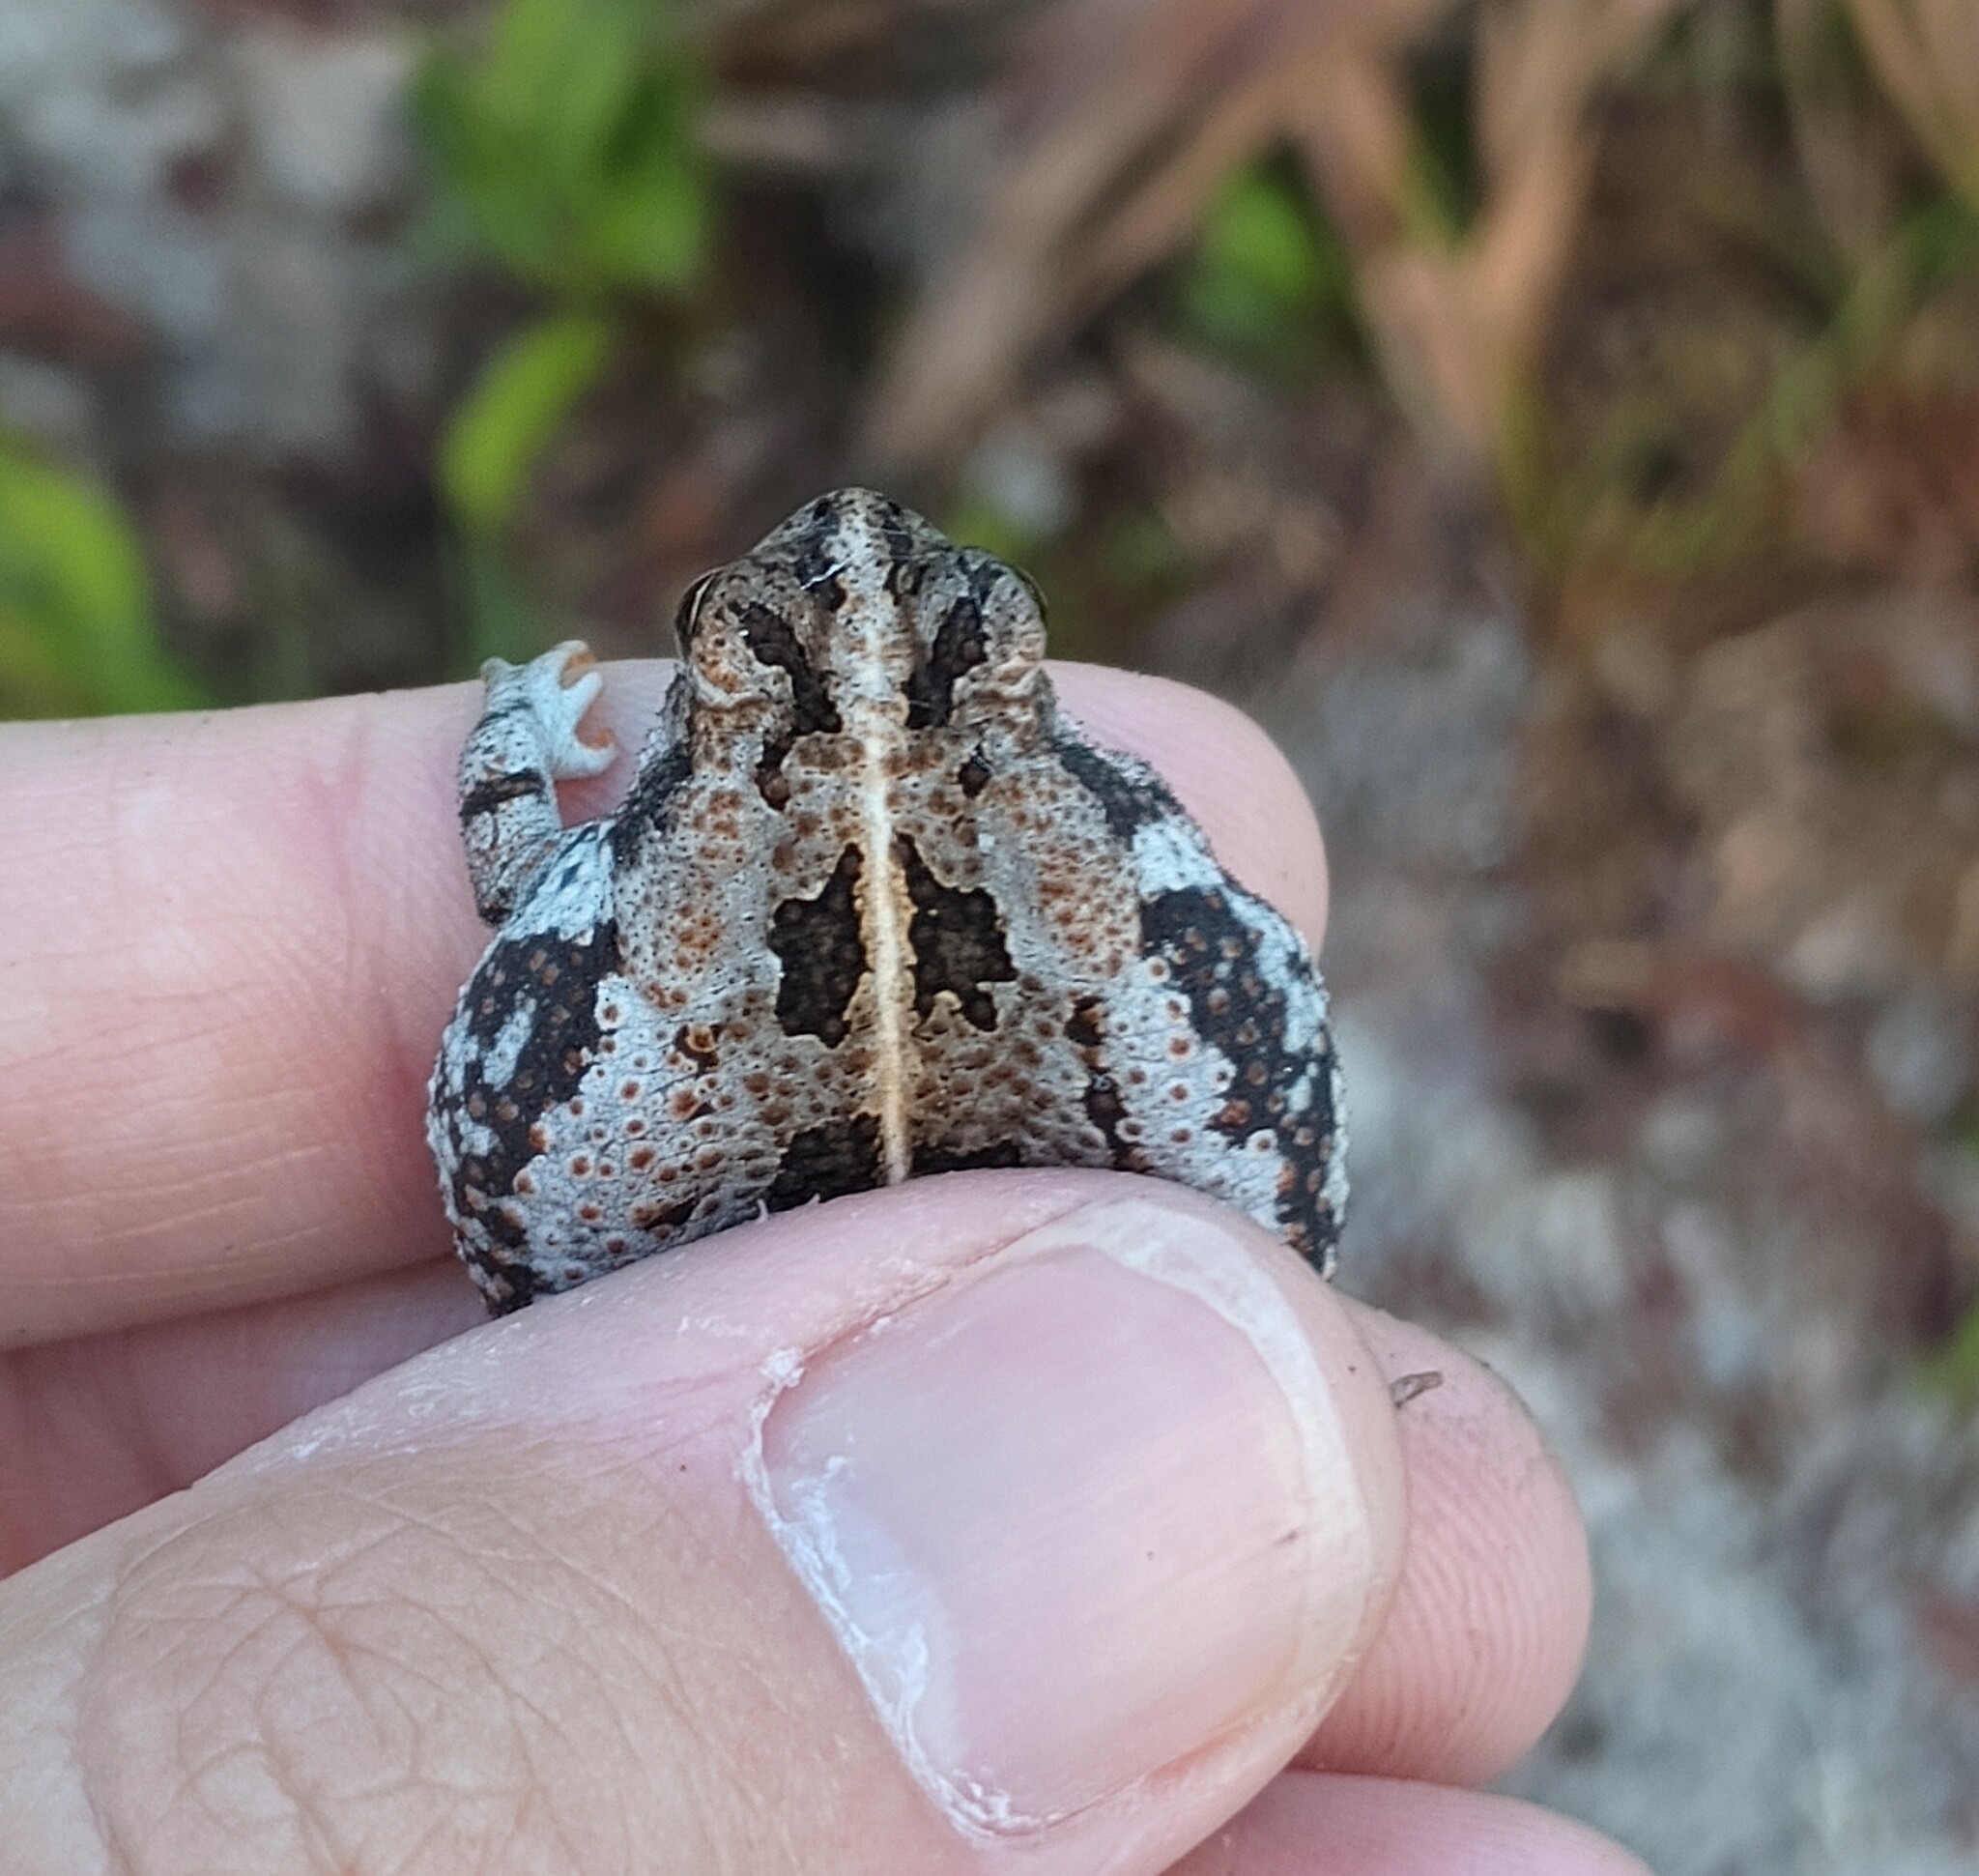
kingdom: Animalia
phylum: Chordata
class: Amphibia
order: Anura
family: Bufonidae
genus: Anaxyrus
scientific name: Anaxyrus quercicus
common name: Oak toad
